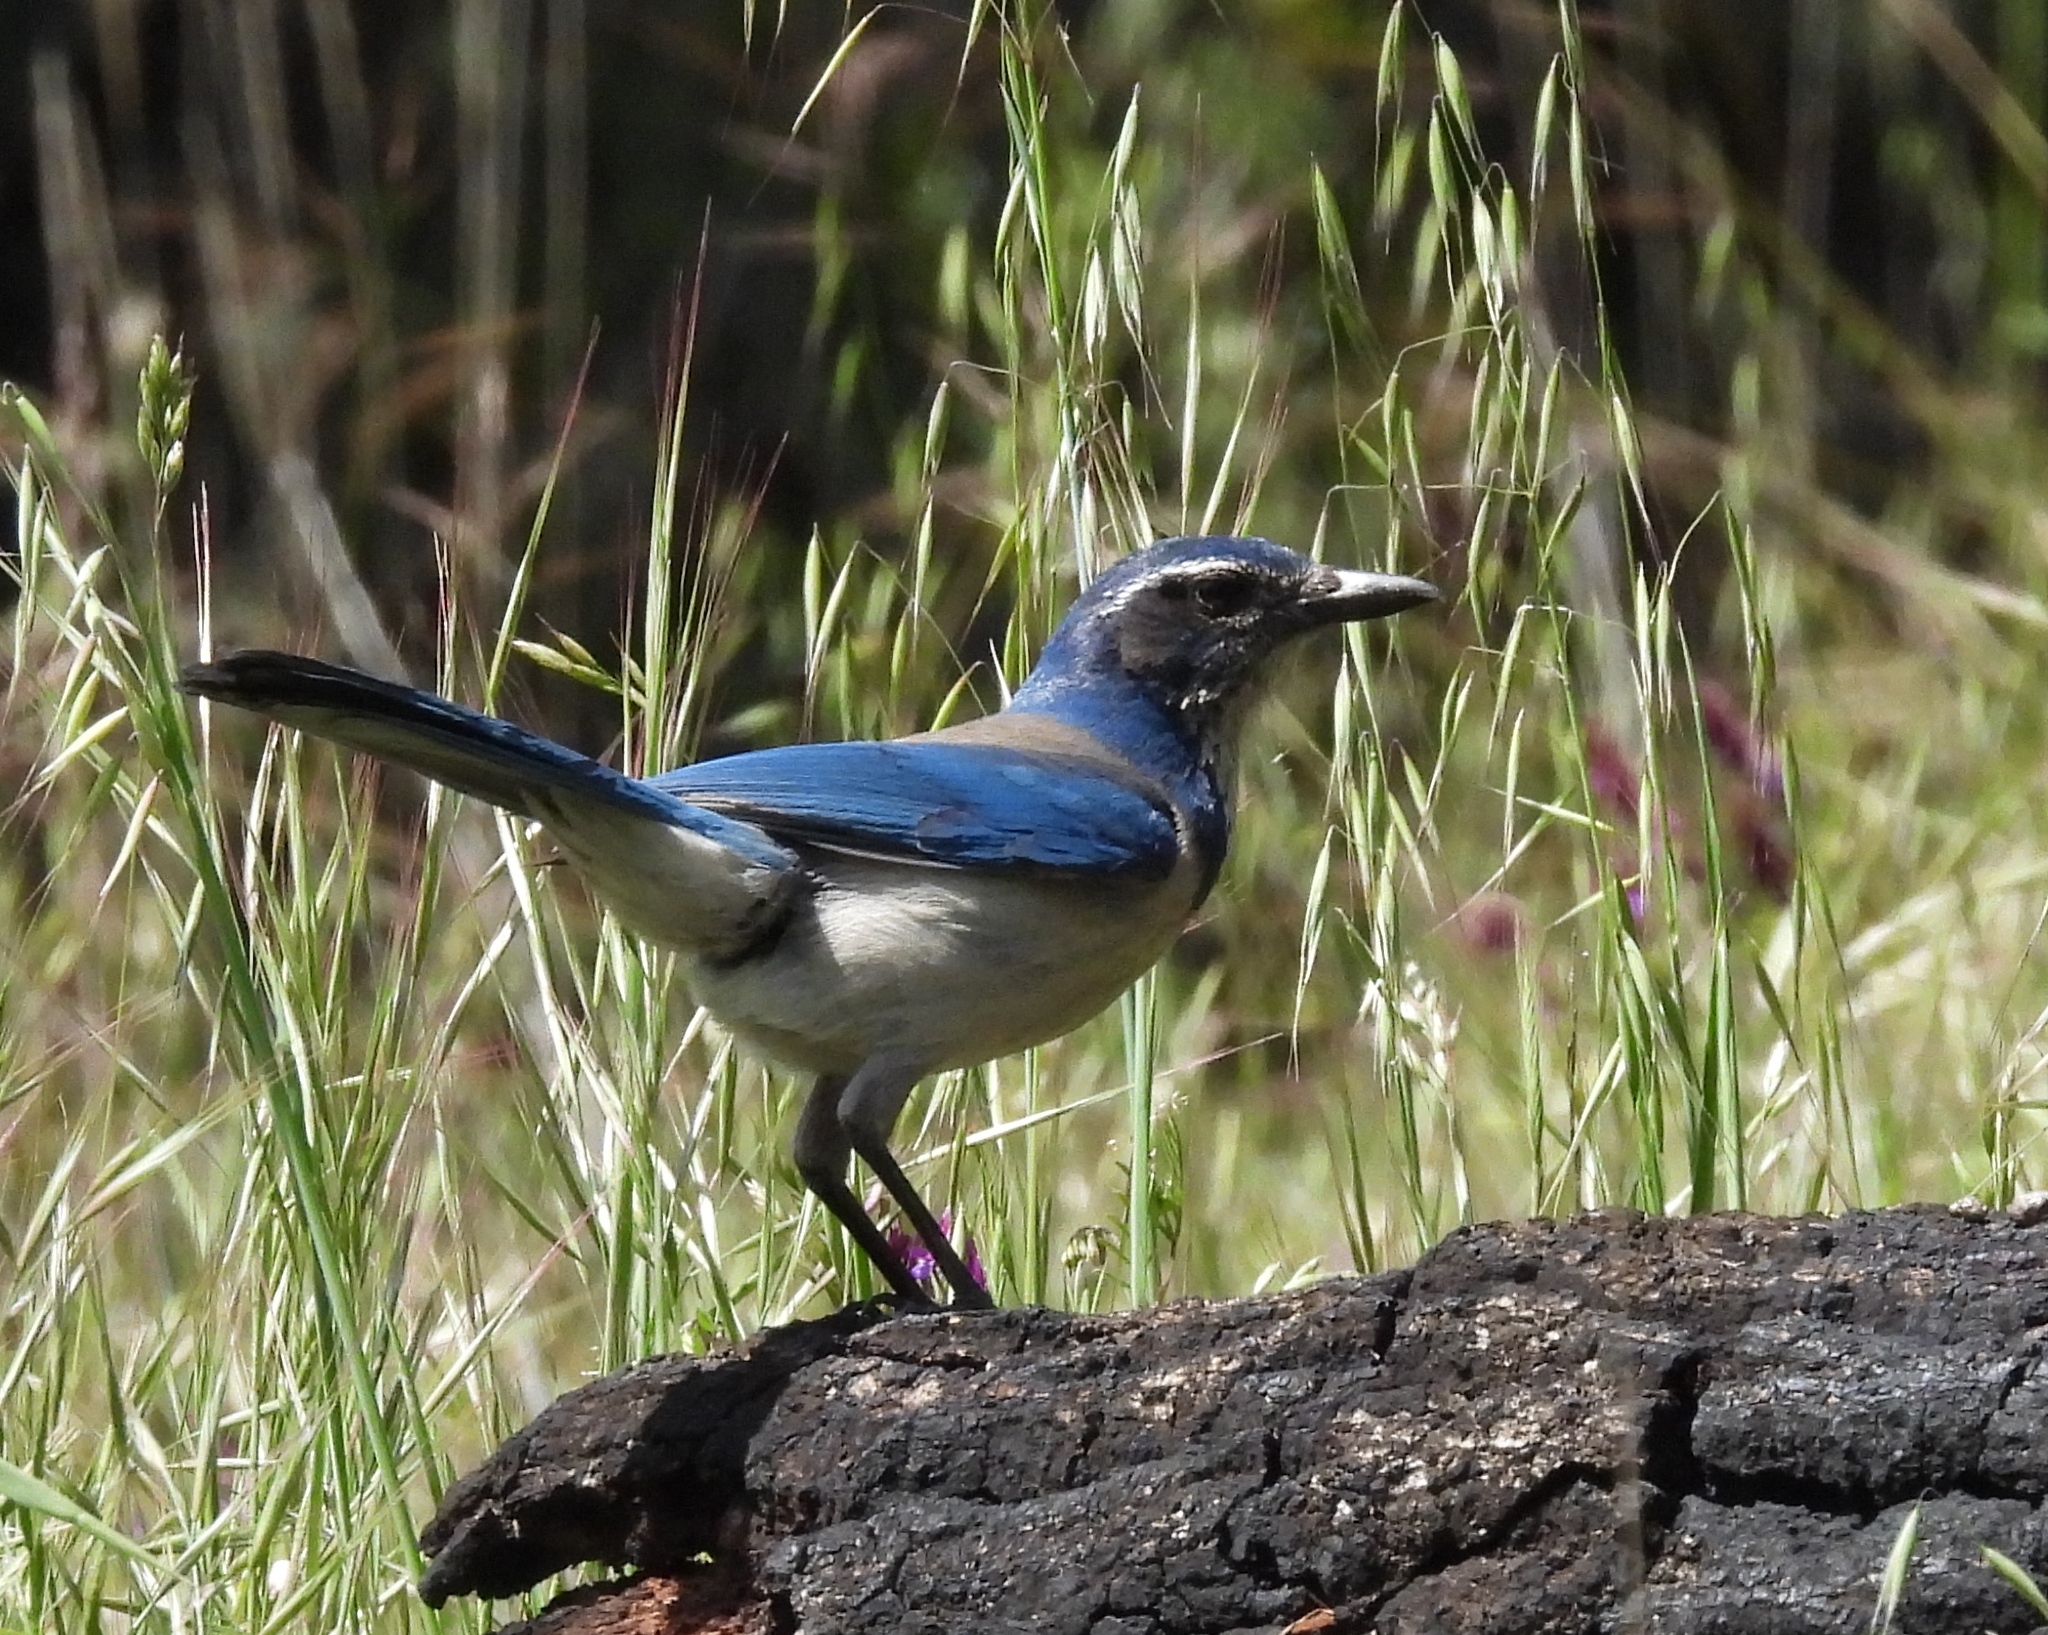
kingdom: Animalia
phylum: Chordata
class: Aves
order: Passeriformes
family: Corvidae
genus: Aphelocoma
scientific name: Aphelocoma californica
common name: California scrub-jay
